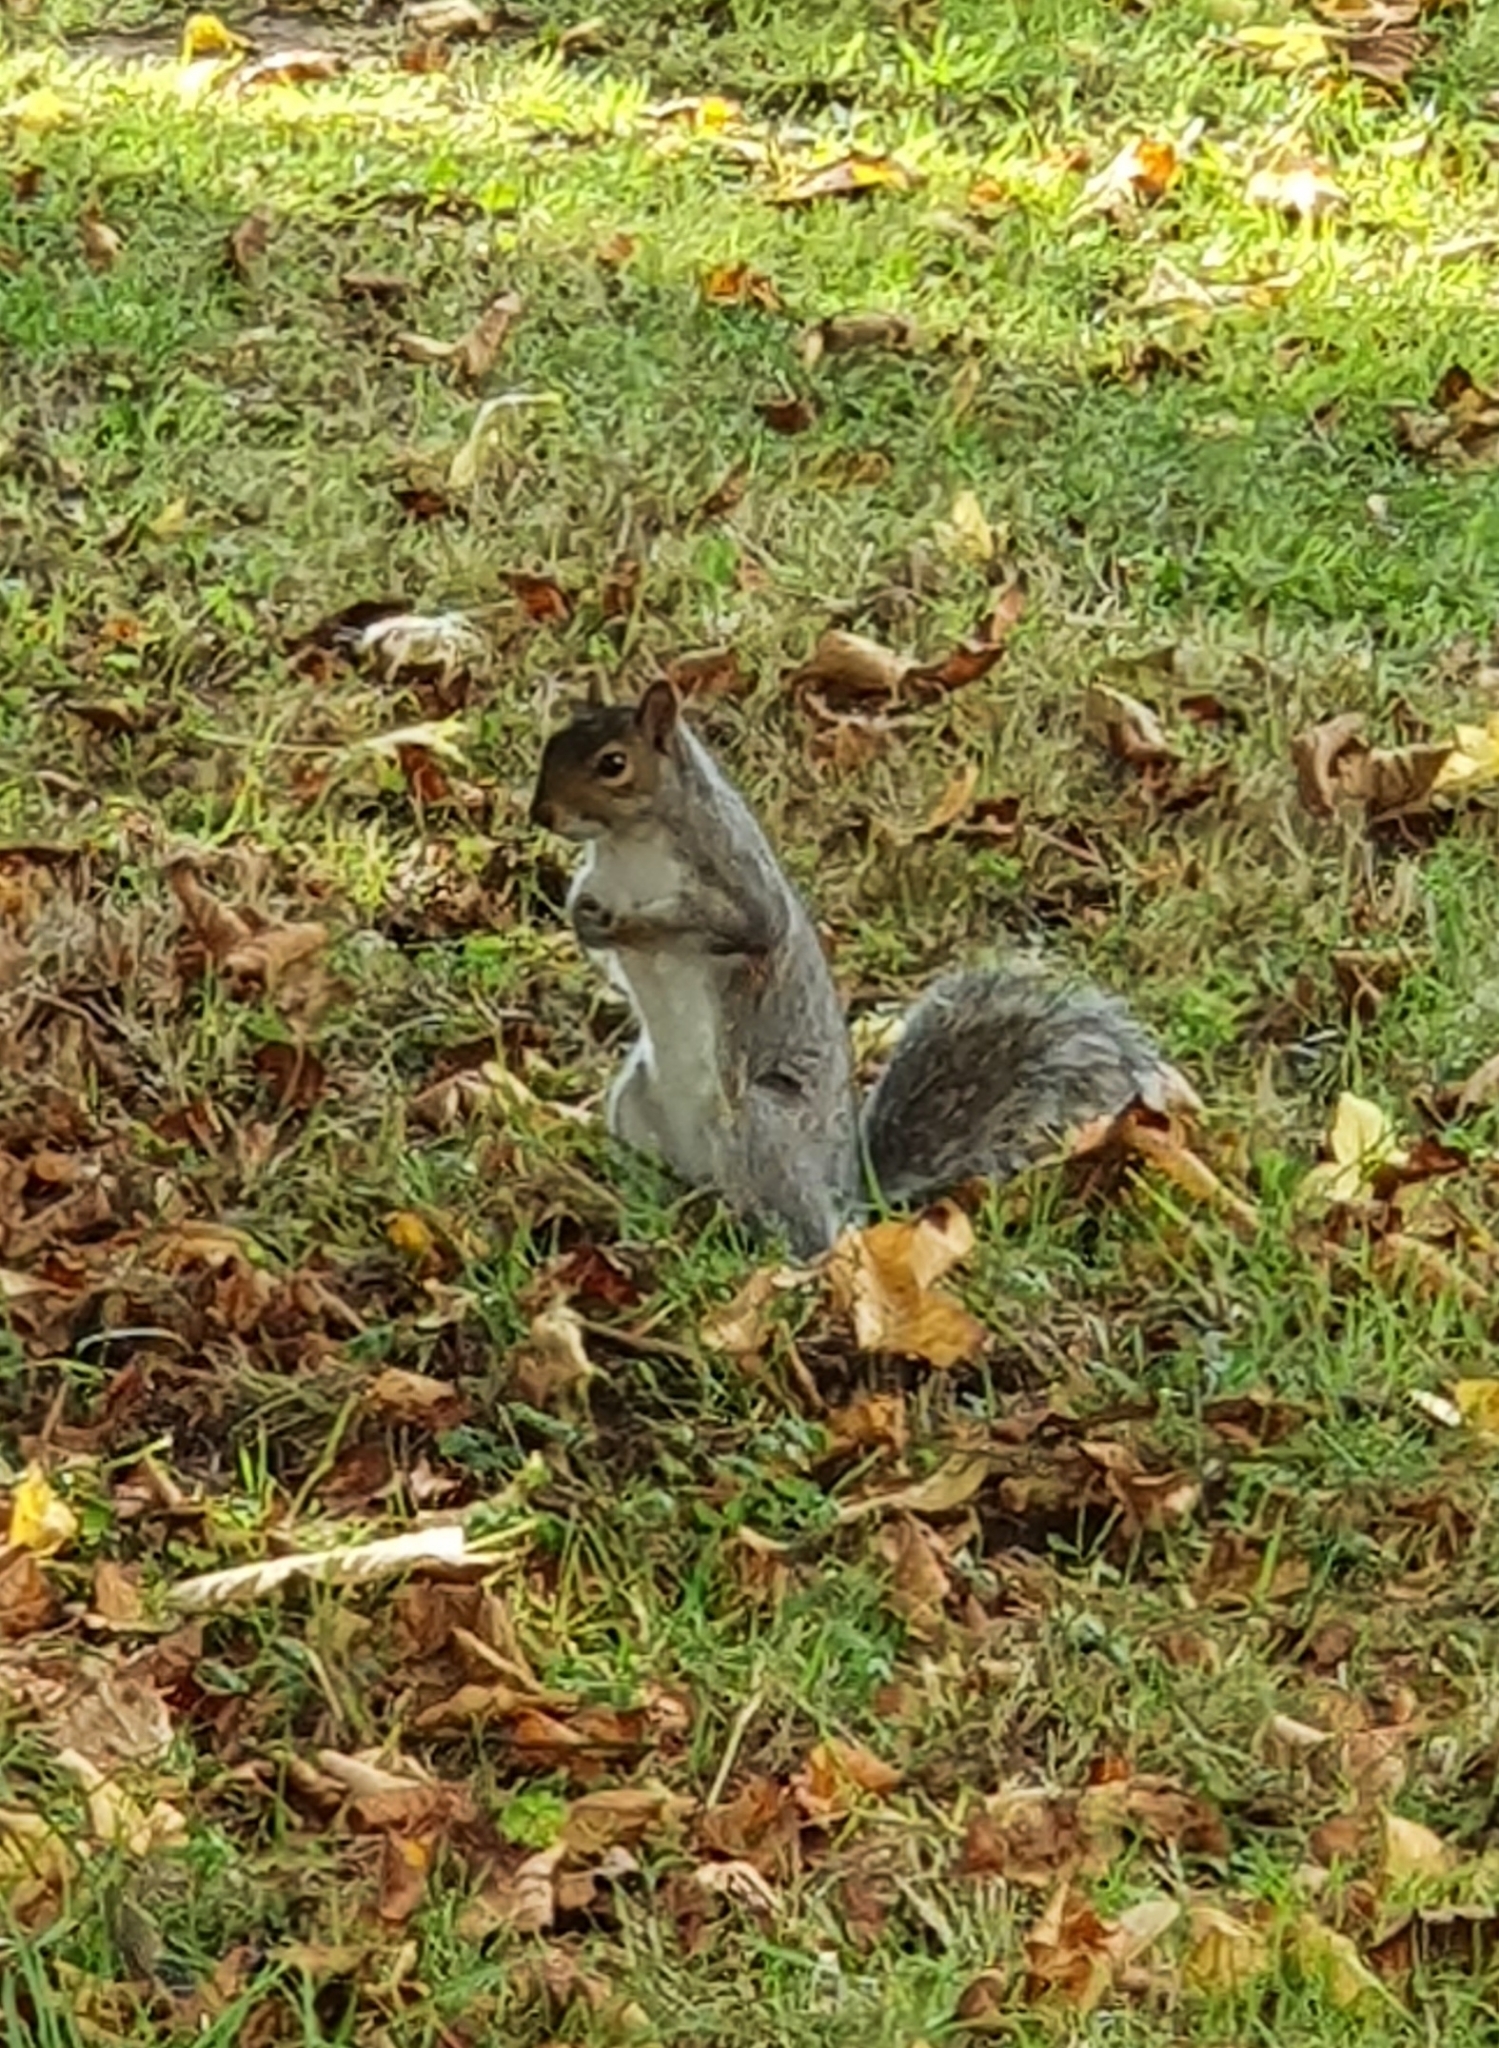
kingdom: Animalia
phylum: Chordata
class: Mammalia
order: Rodentia
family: Sciuridae
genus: Sciurus
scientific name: Sciurus carolinensis
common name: Eastern gray squirrel
